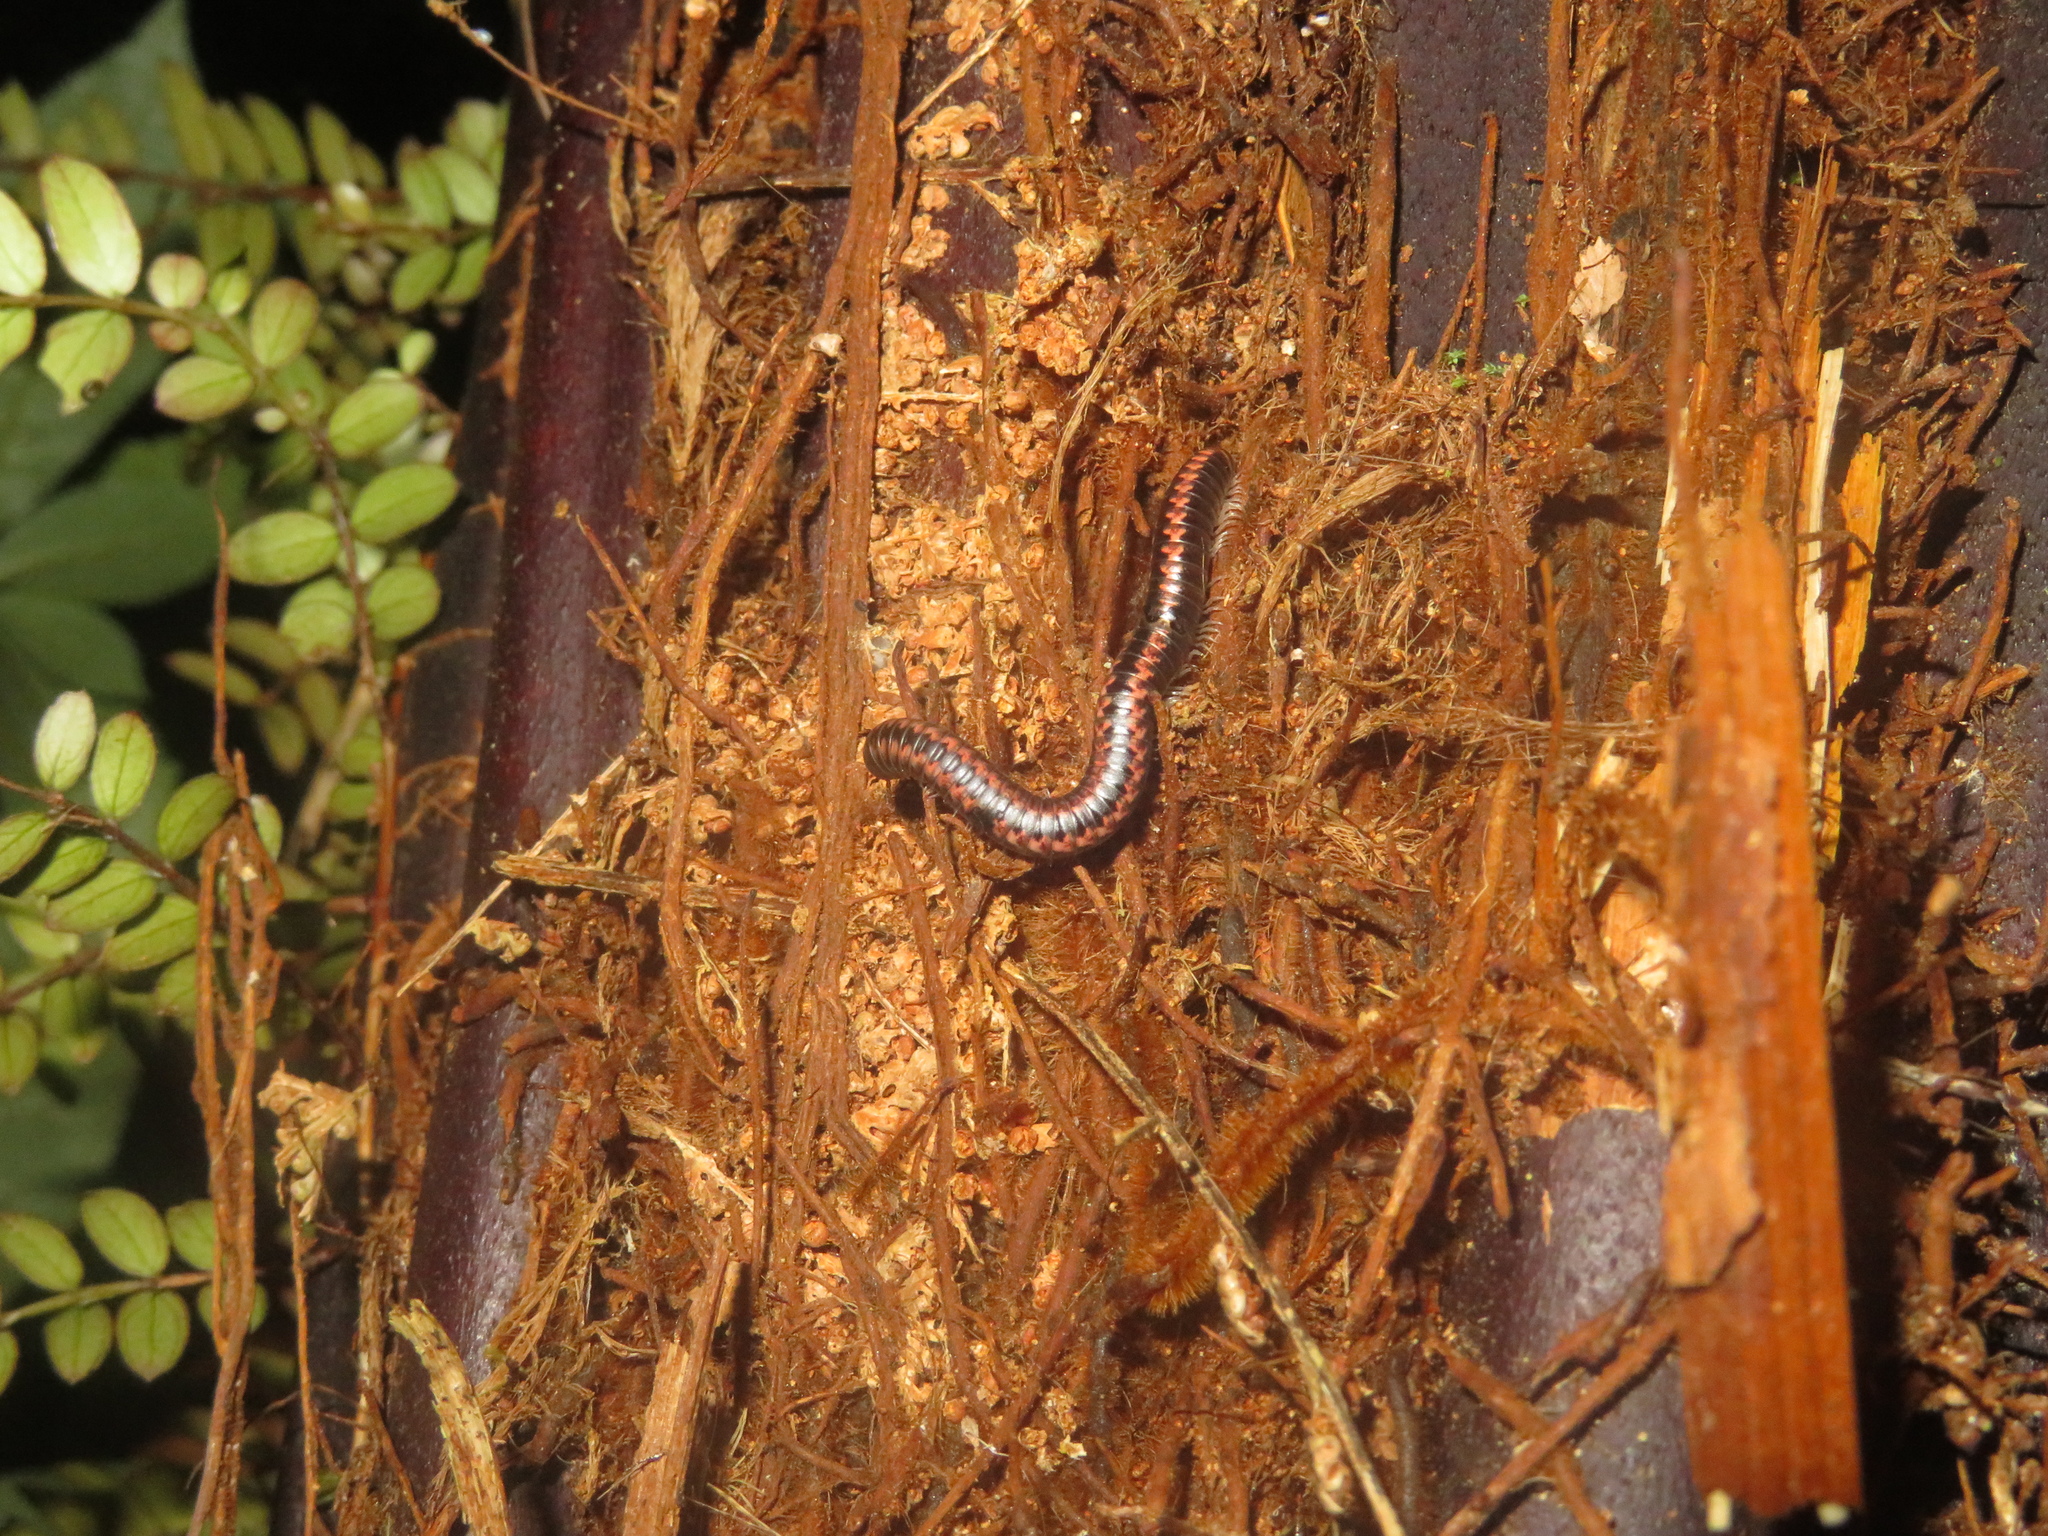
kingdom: Animalia
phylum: Arthropoda
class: Diplopoda
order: Spirobolida
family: Spirobolellidae
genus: Spirobolellus
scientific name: Spirobolellus antipodarum
